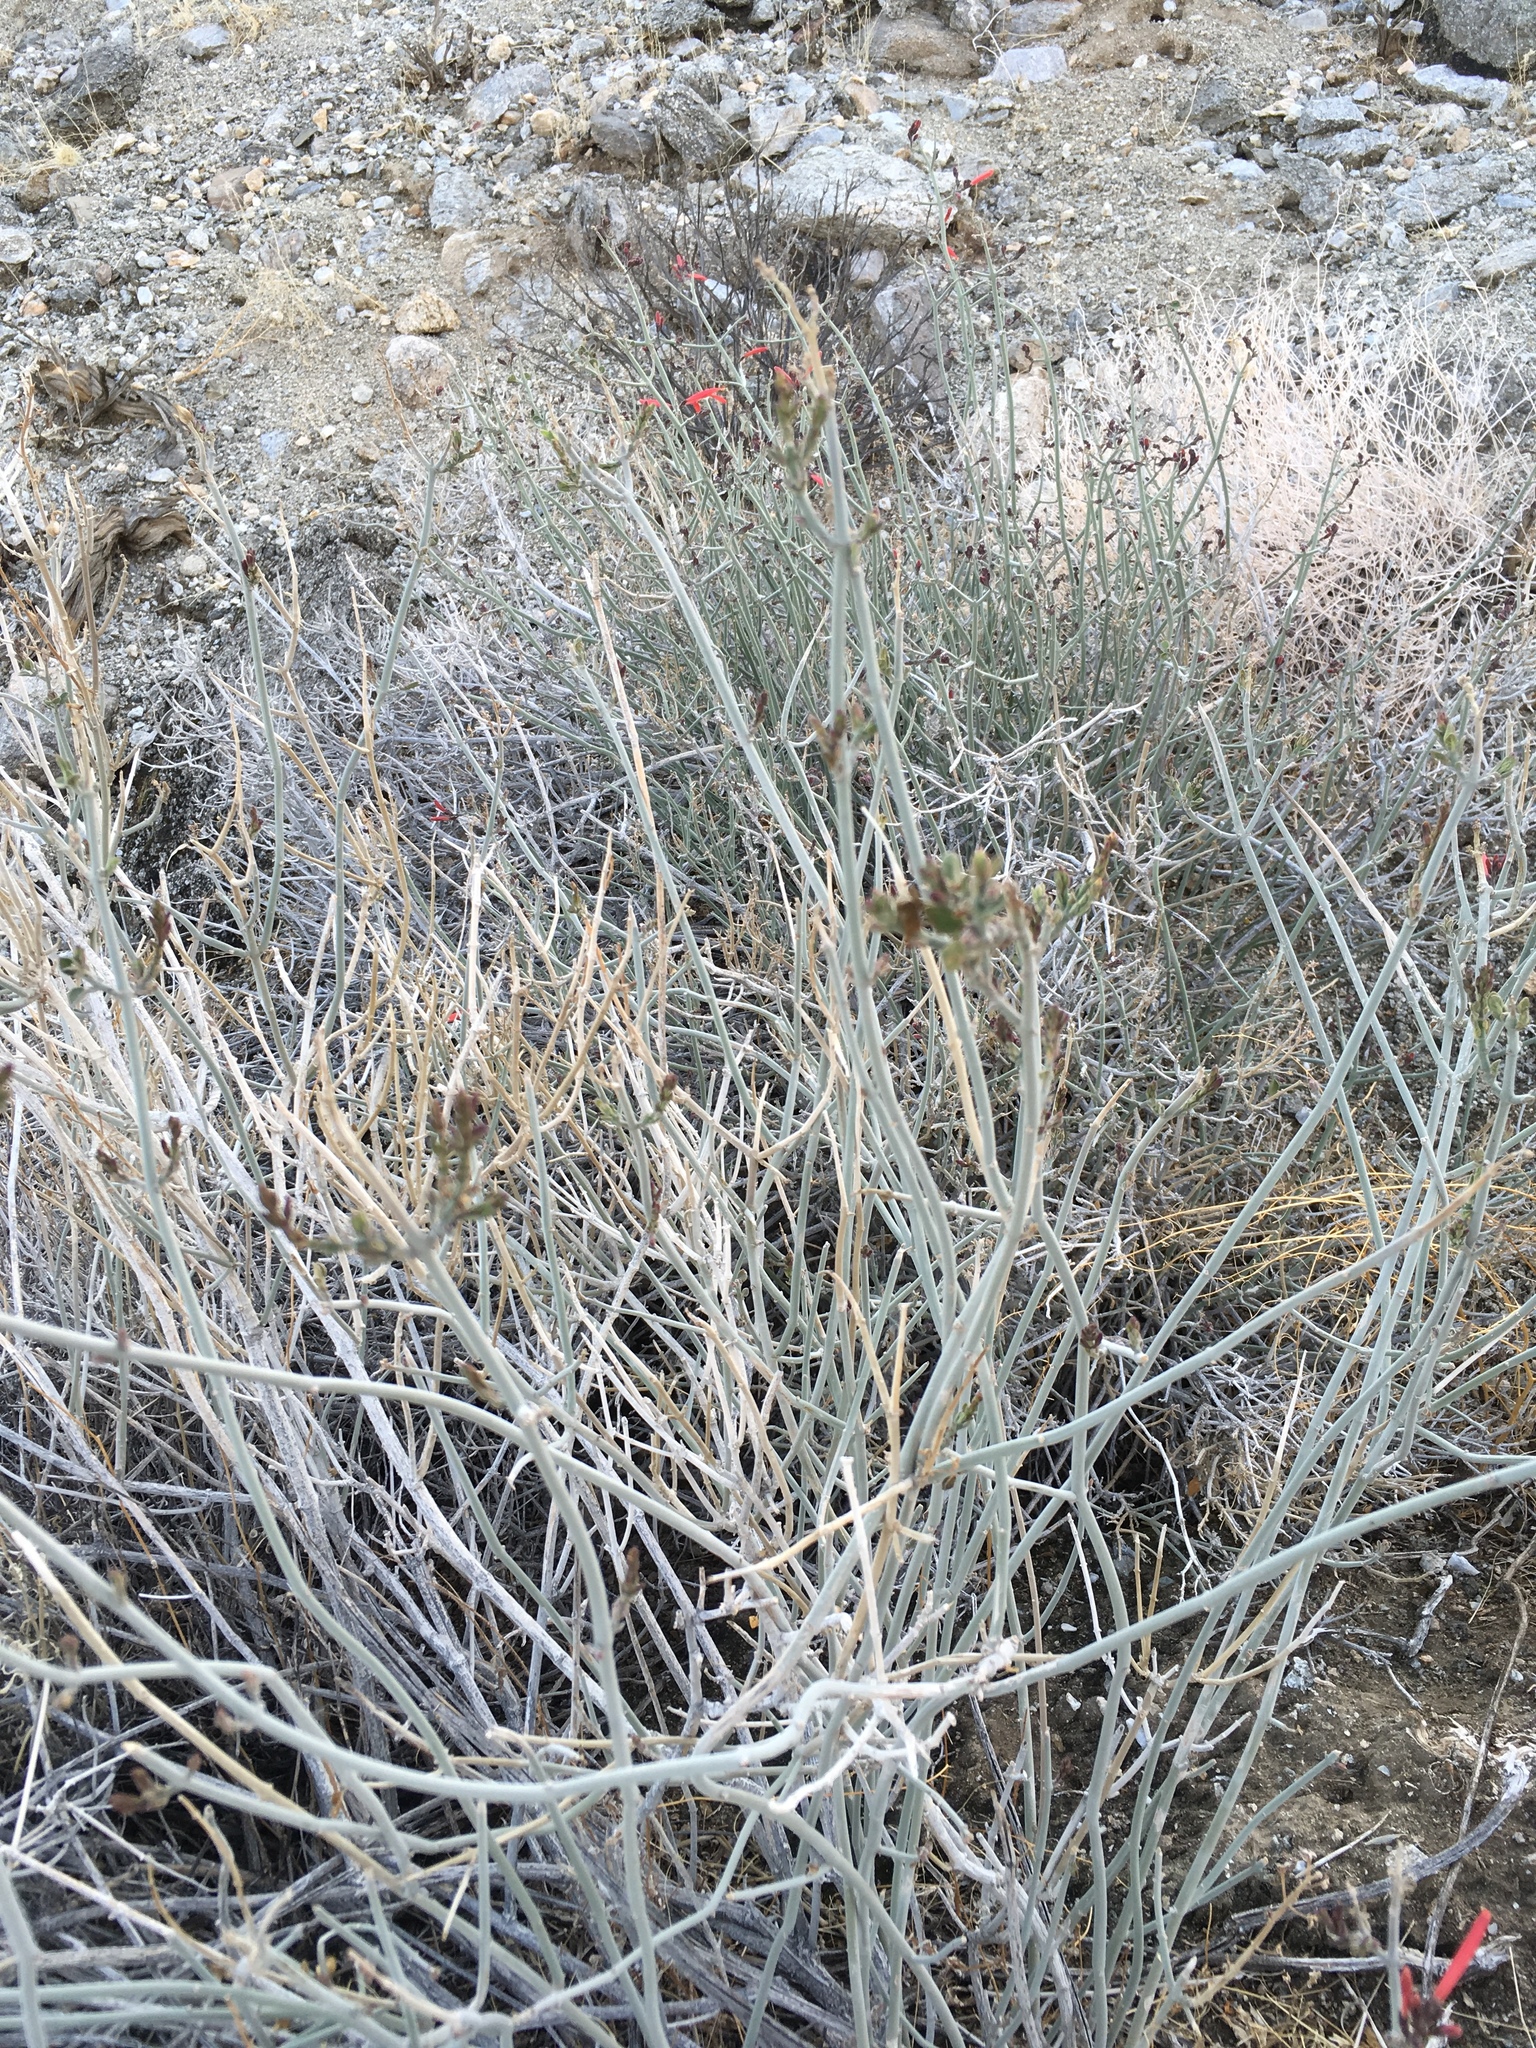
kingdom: Plantae
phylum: Tracheophyta
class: Magnoliopsida
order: Lamiales
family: Acanthaceae
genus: Justicia
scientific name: Justicia californica
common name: Chuparosa-honeysuckle
